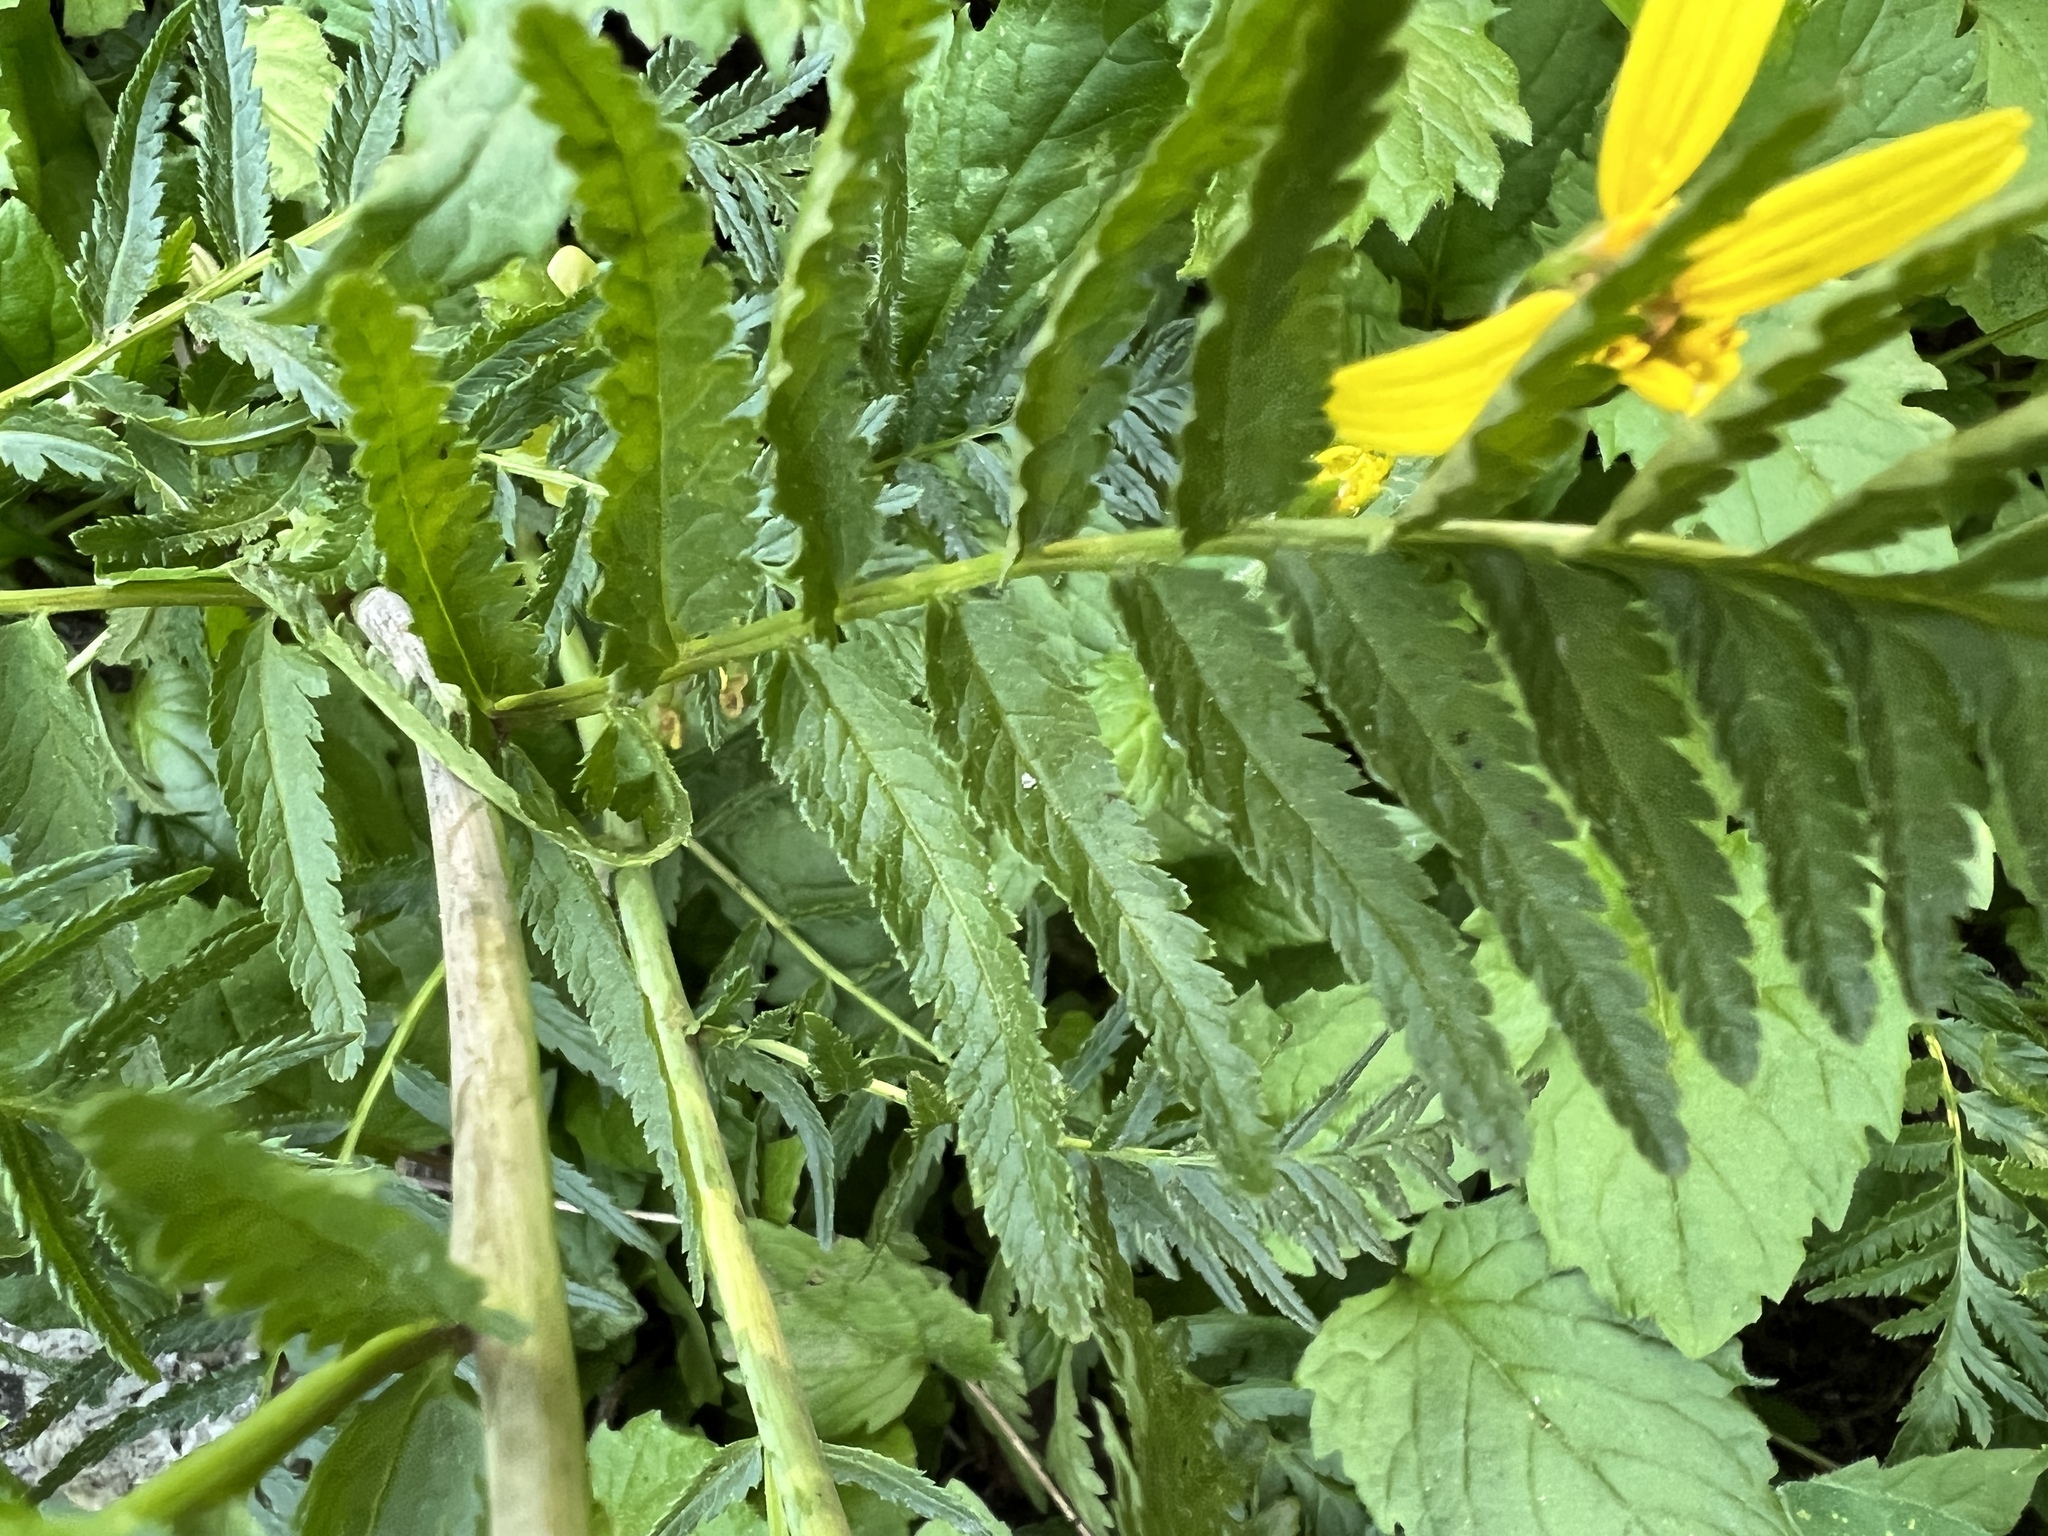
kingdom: Plantae
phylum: Tracheophyta
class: Magnoliopsida
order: Lamiales
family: Orobanchaceae
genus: Pedicularis
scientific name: Pedicularis bracteosa
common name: Bracted lousewort
